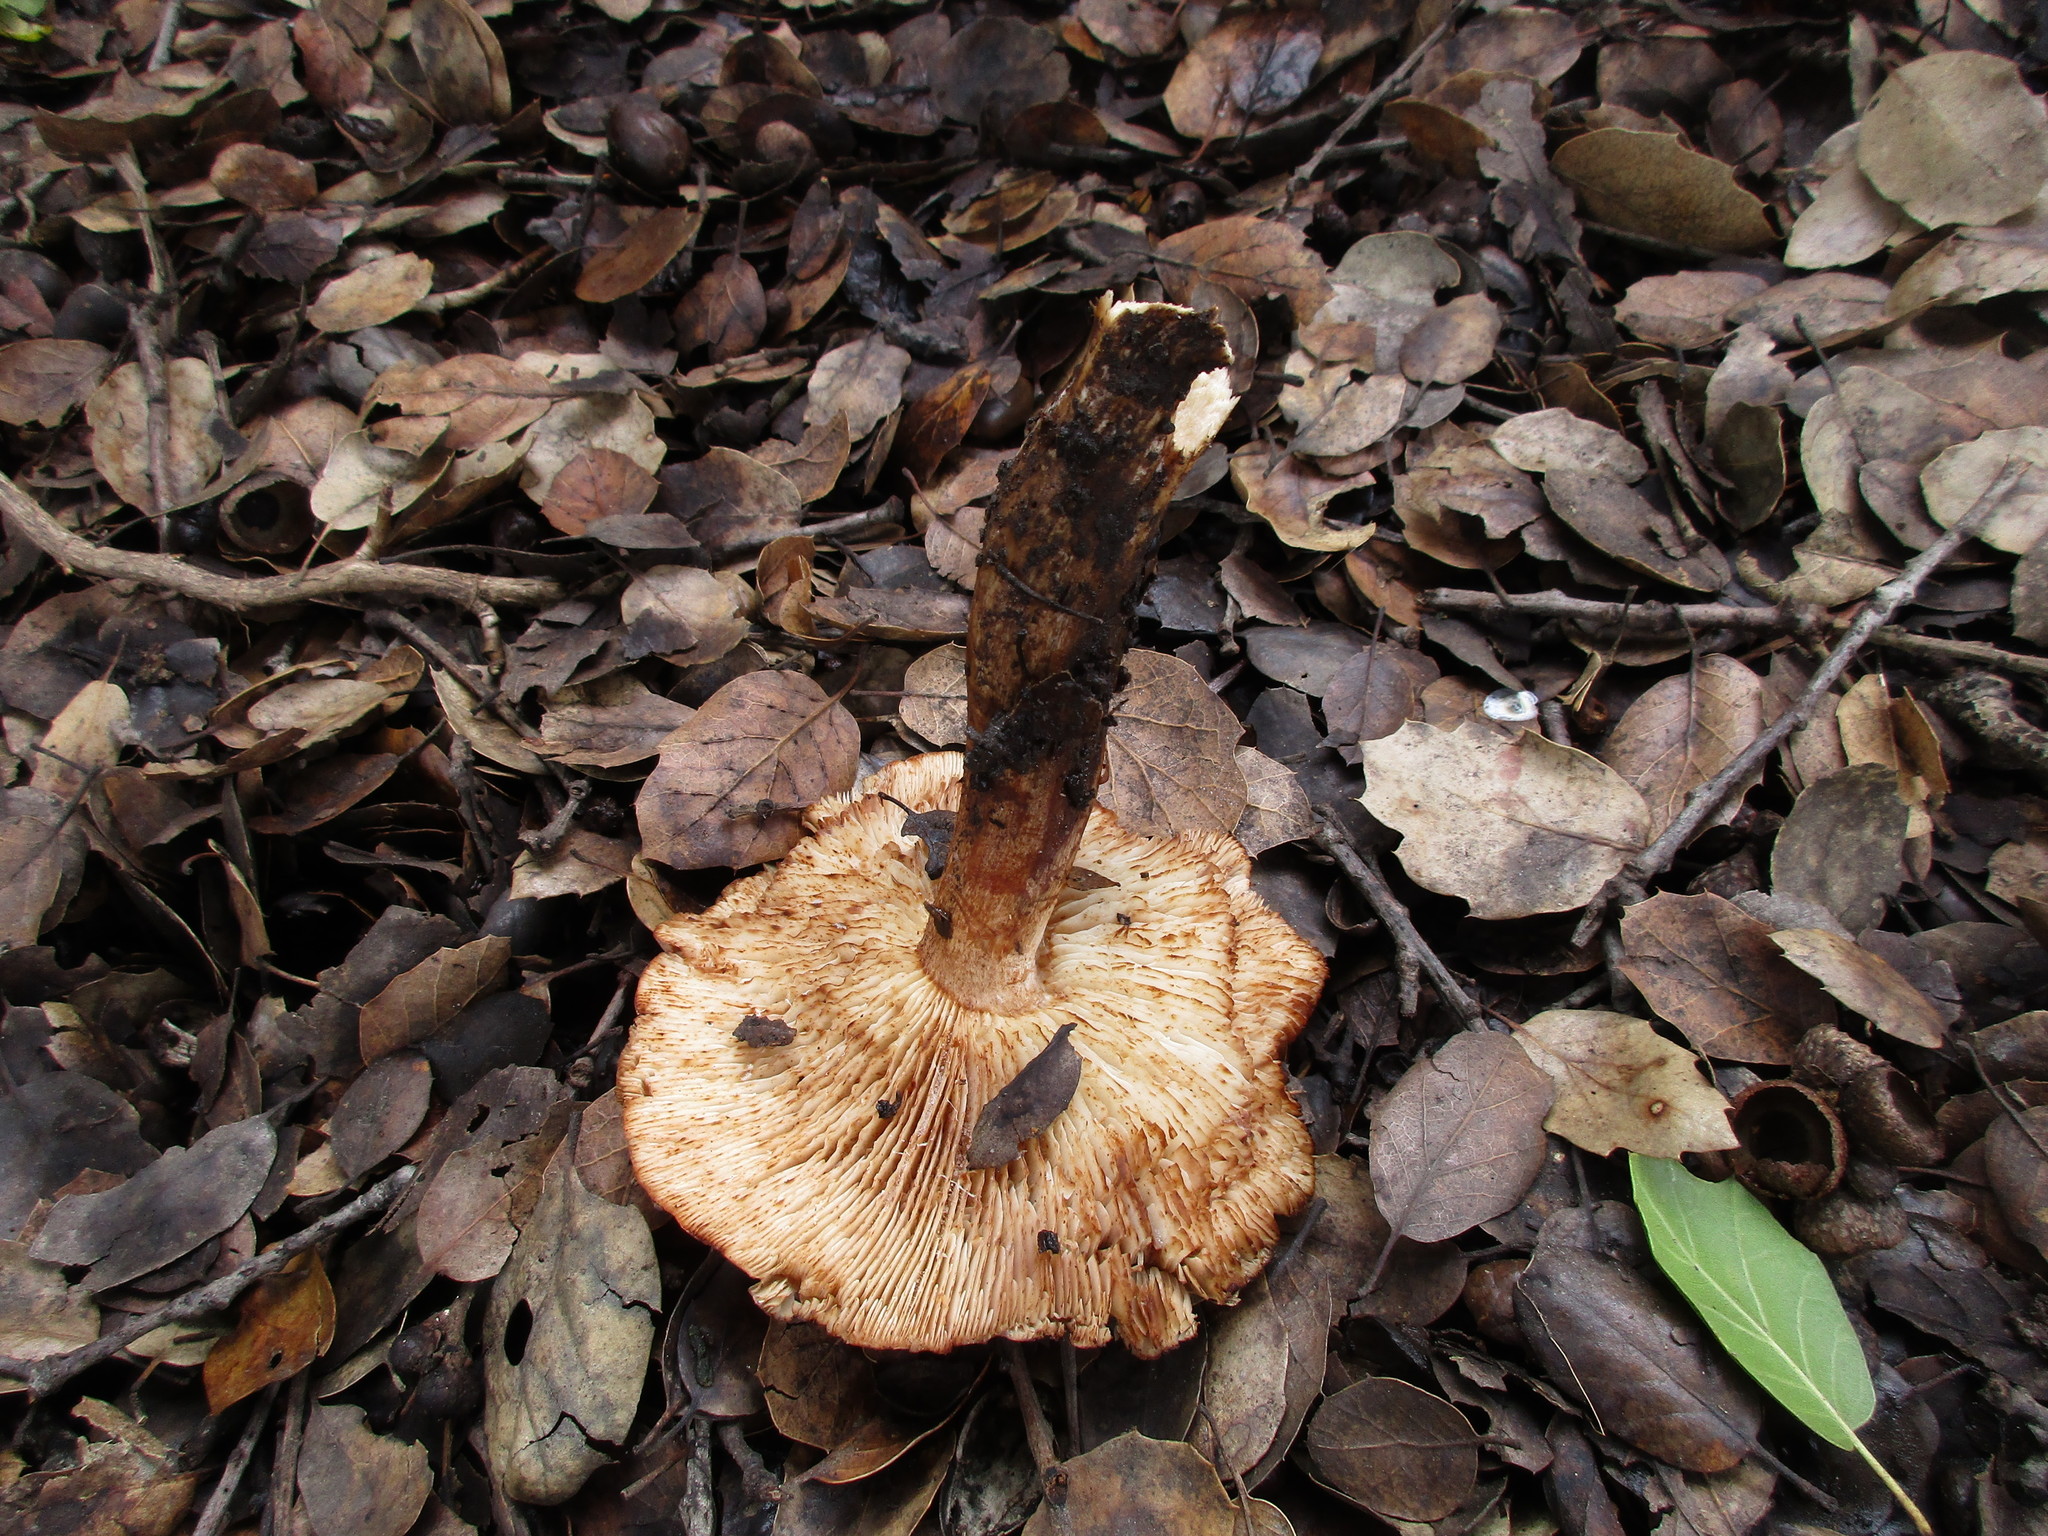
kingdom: Fungi
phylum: Basidiomycota
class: Agaricomycetes
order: Agaricales
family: Tricholomataceae
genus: Melanoleuca
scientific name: Melanoleuca dryophila
